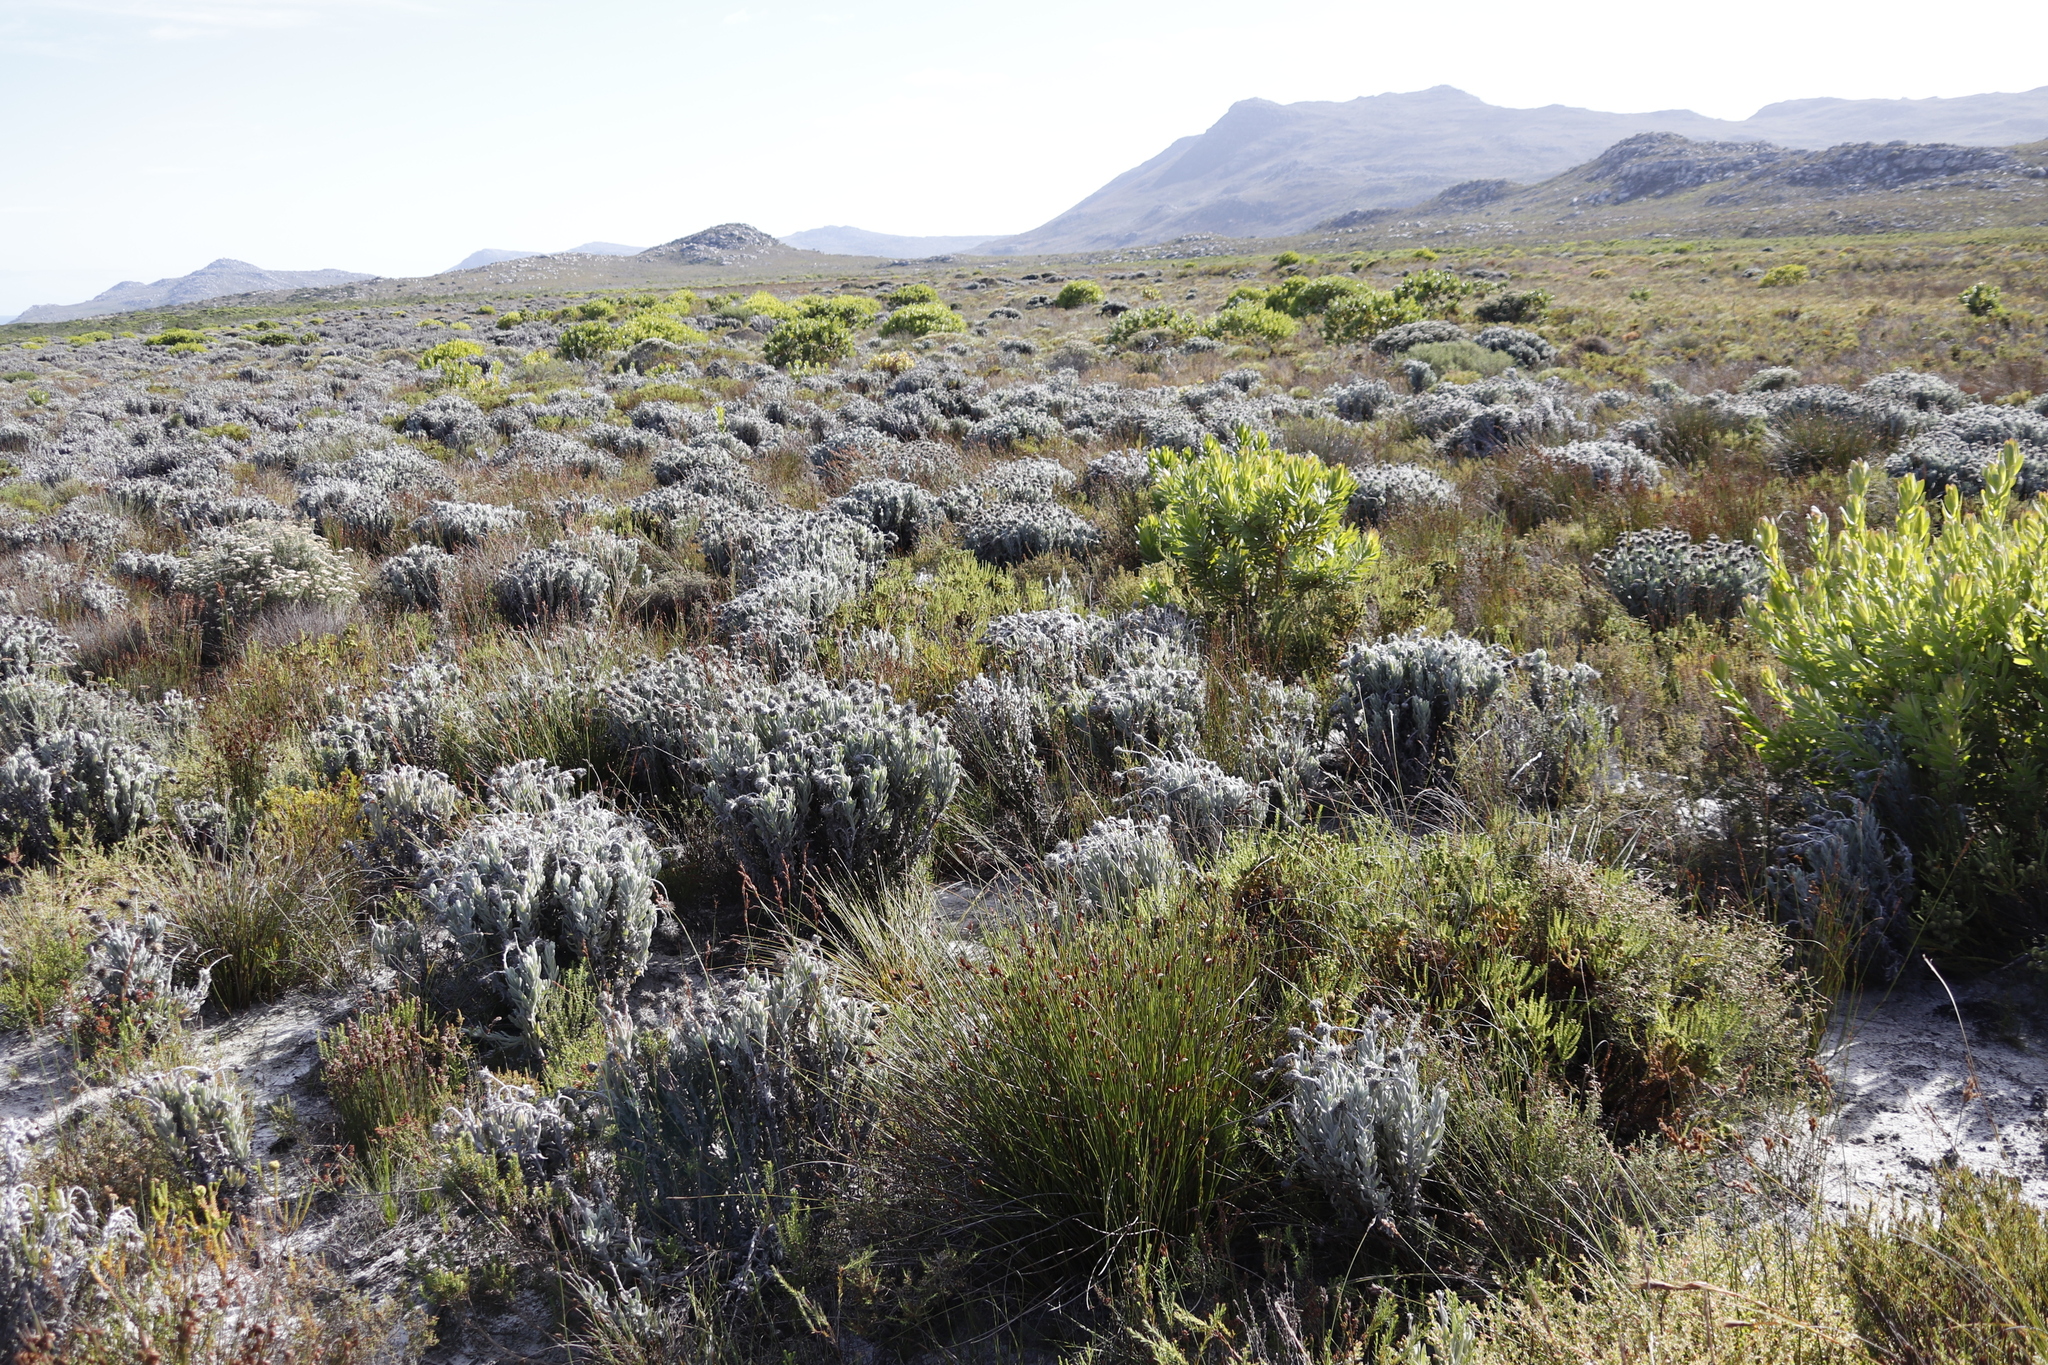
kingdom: Plantae
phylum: Tracheophyta
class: Magnoliopsida
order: Proteales
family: Proteaceae
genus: Leucadendron
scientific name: Leucadendron laureolum
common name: Golden sunshinebush
